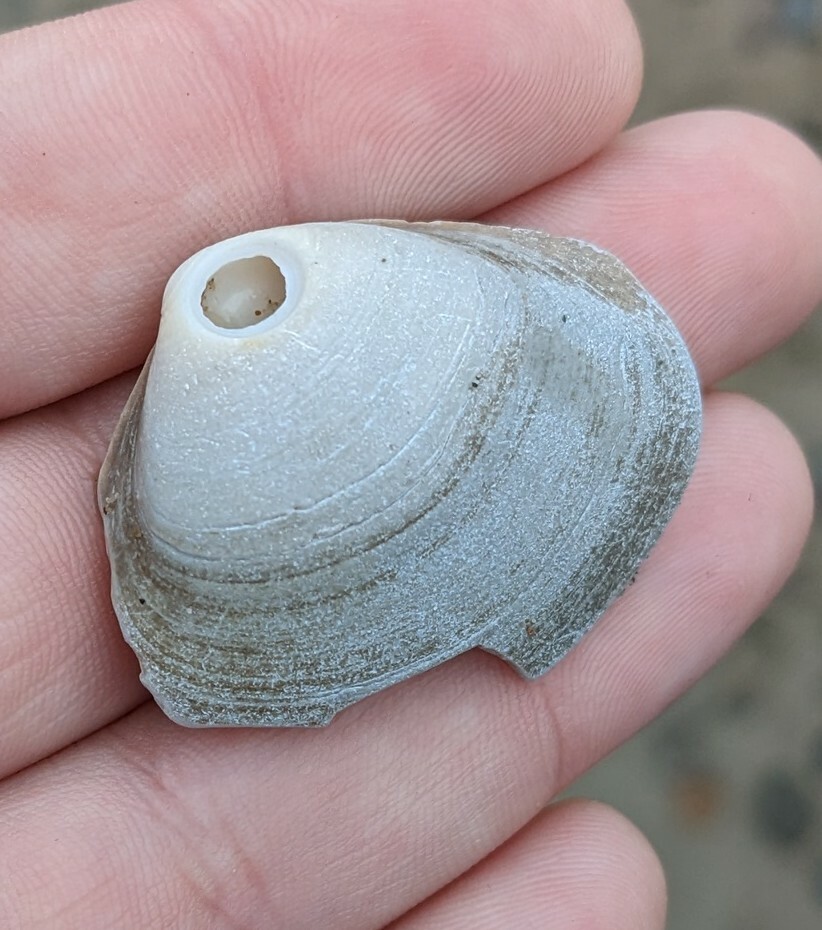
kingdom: Animalia
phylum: Mollusca
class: Bivalvia
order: Venerida
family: Mactridae
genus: Spisula
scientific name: Spisula solidissima
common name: Atlantic surf clam
